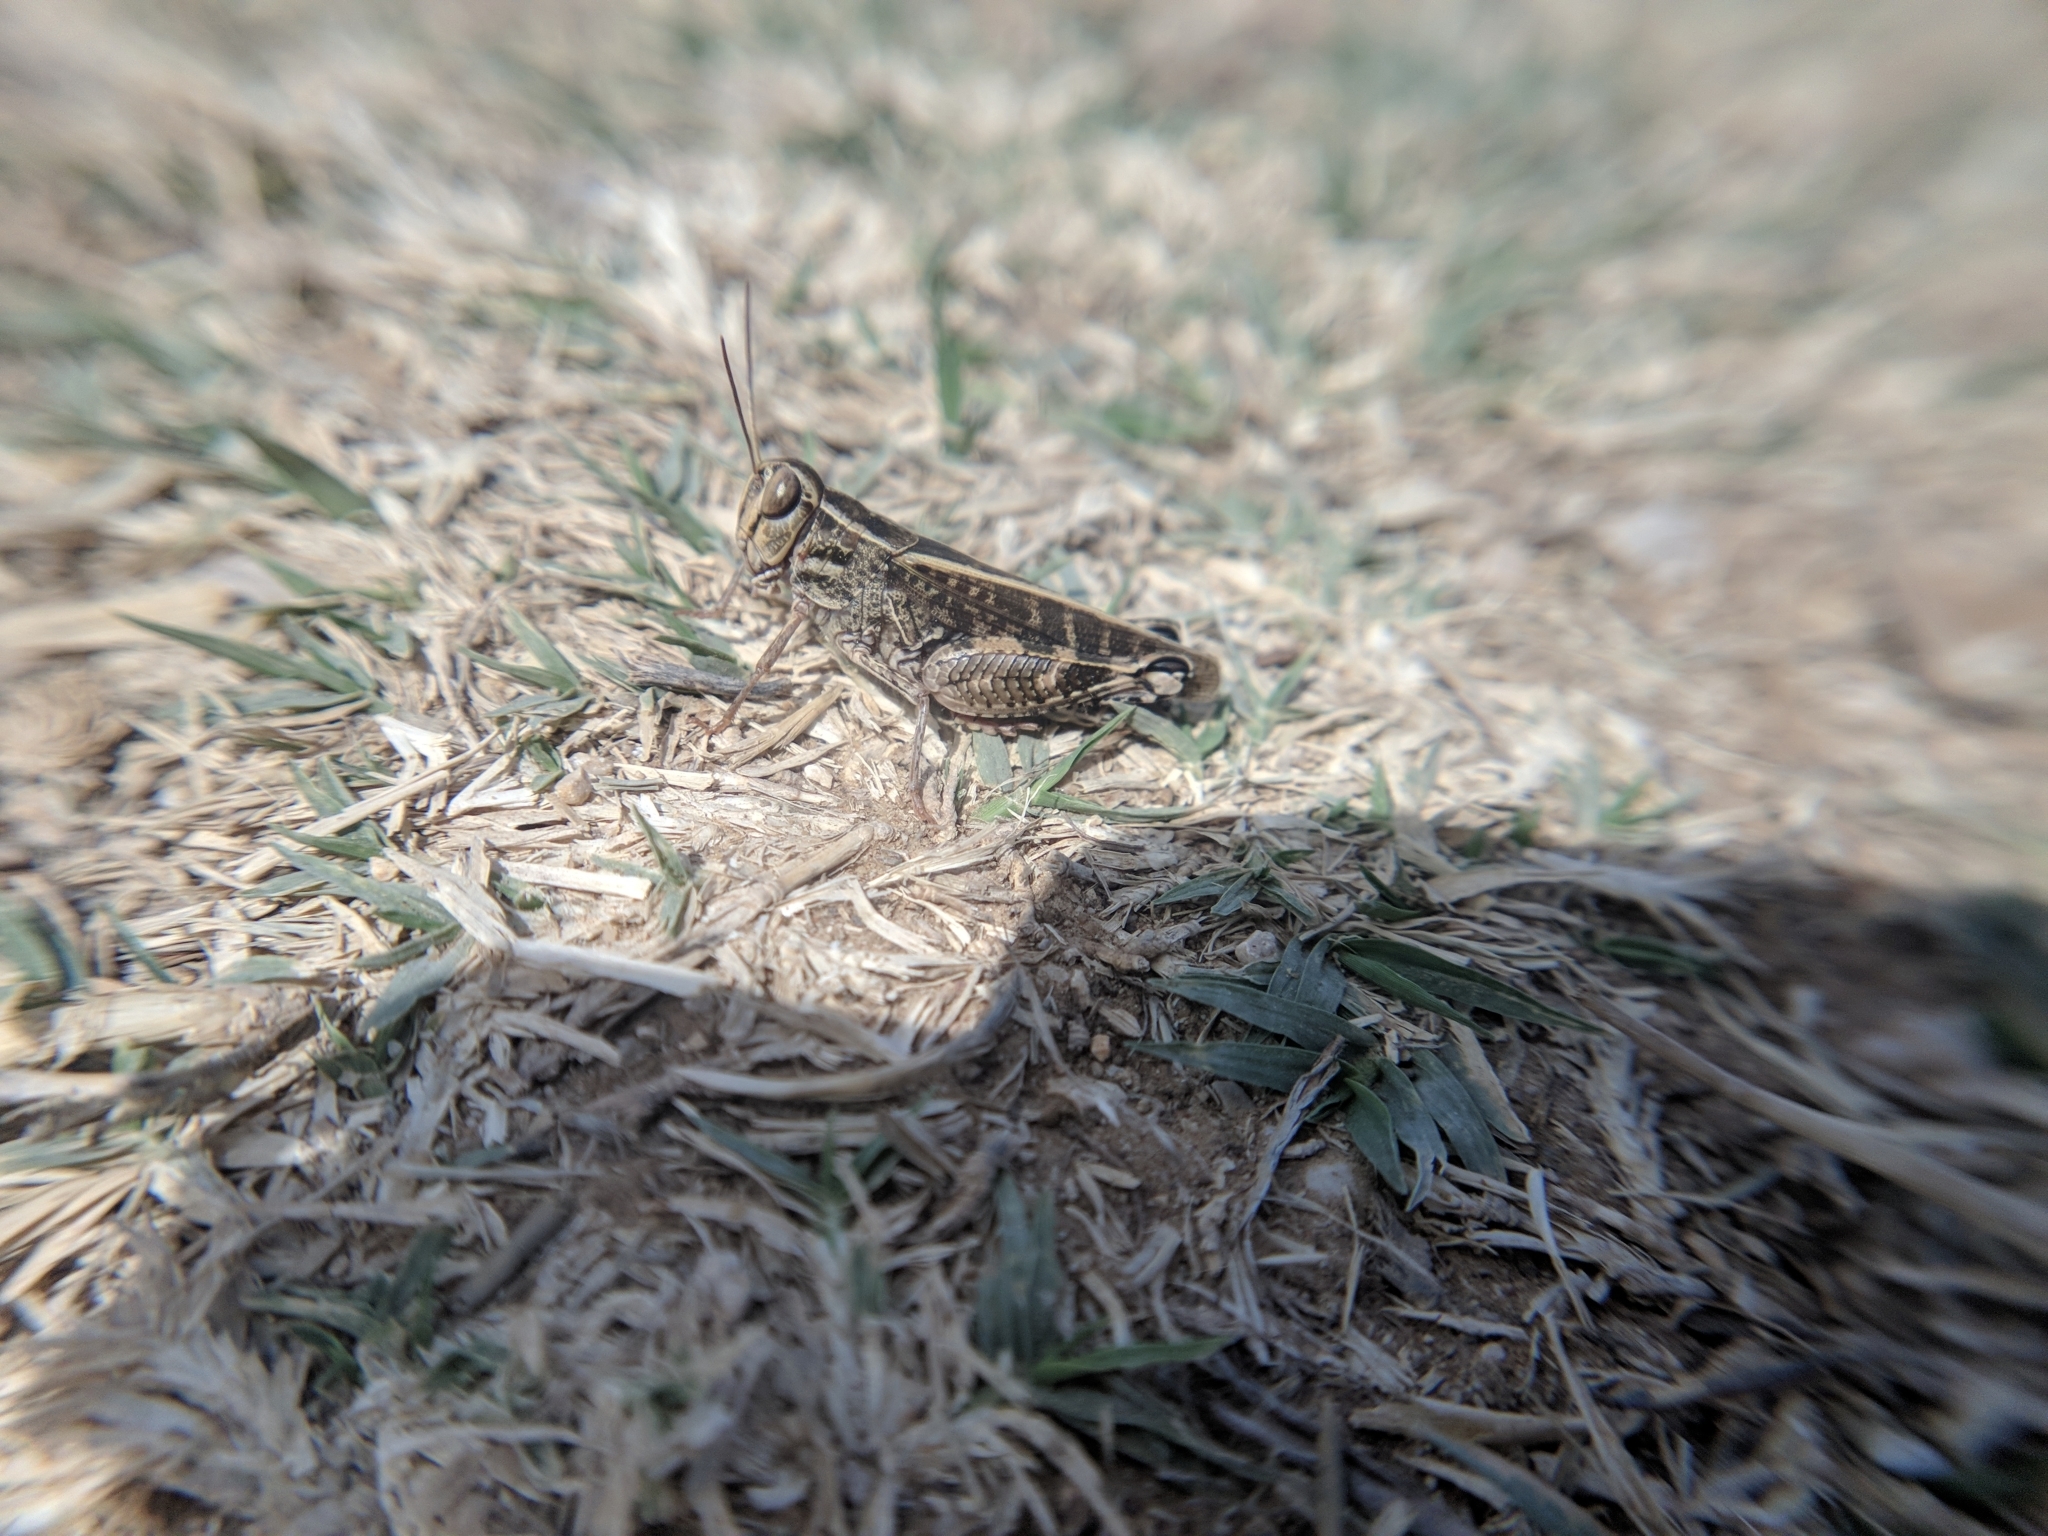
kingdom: Animalia
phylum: Arthropoda
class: Insecta
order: Orthoptera
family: Acrididae
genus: Calliptamus
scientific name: Calliptamus italicus
